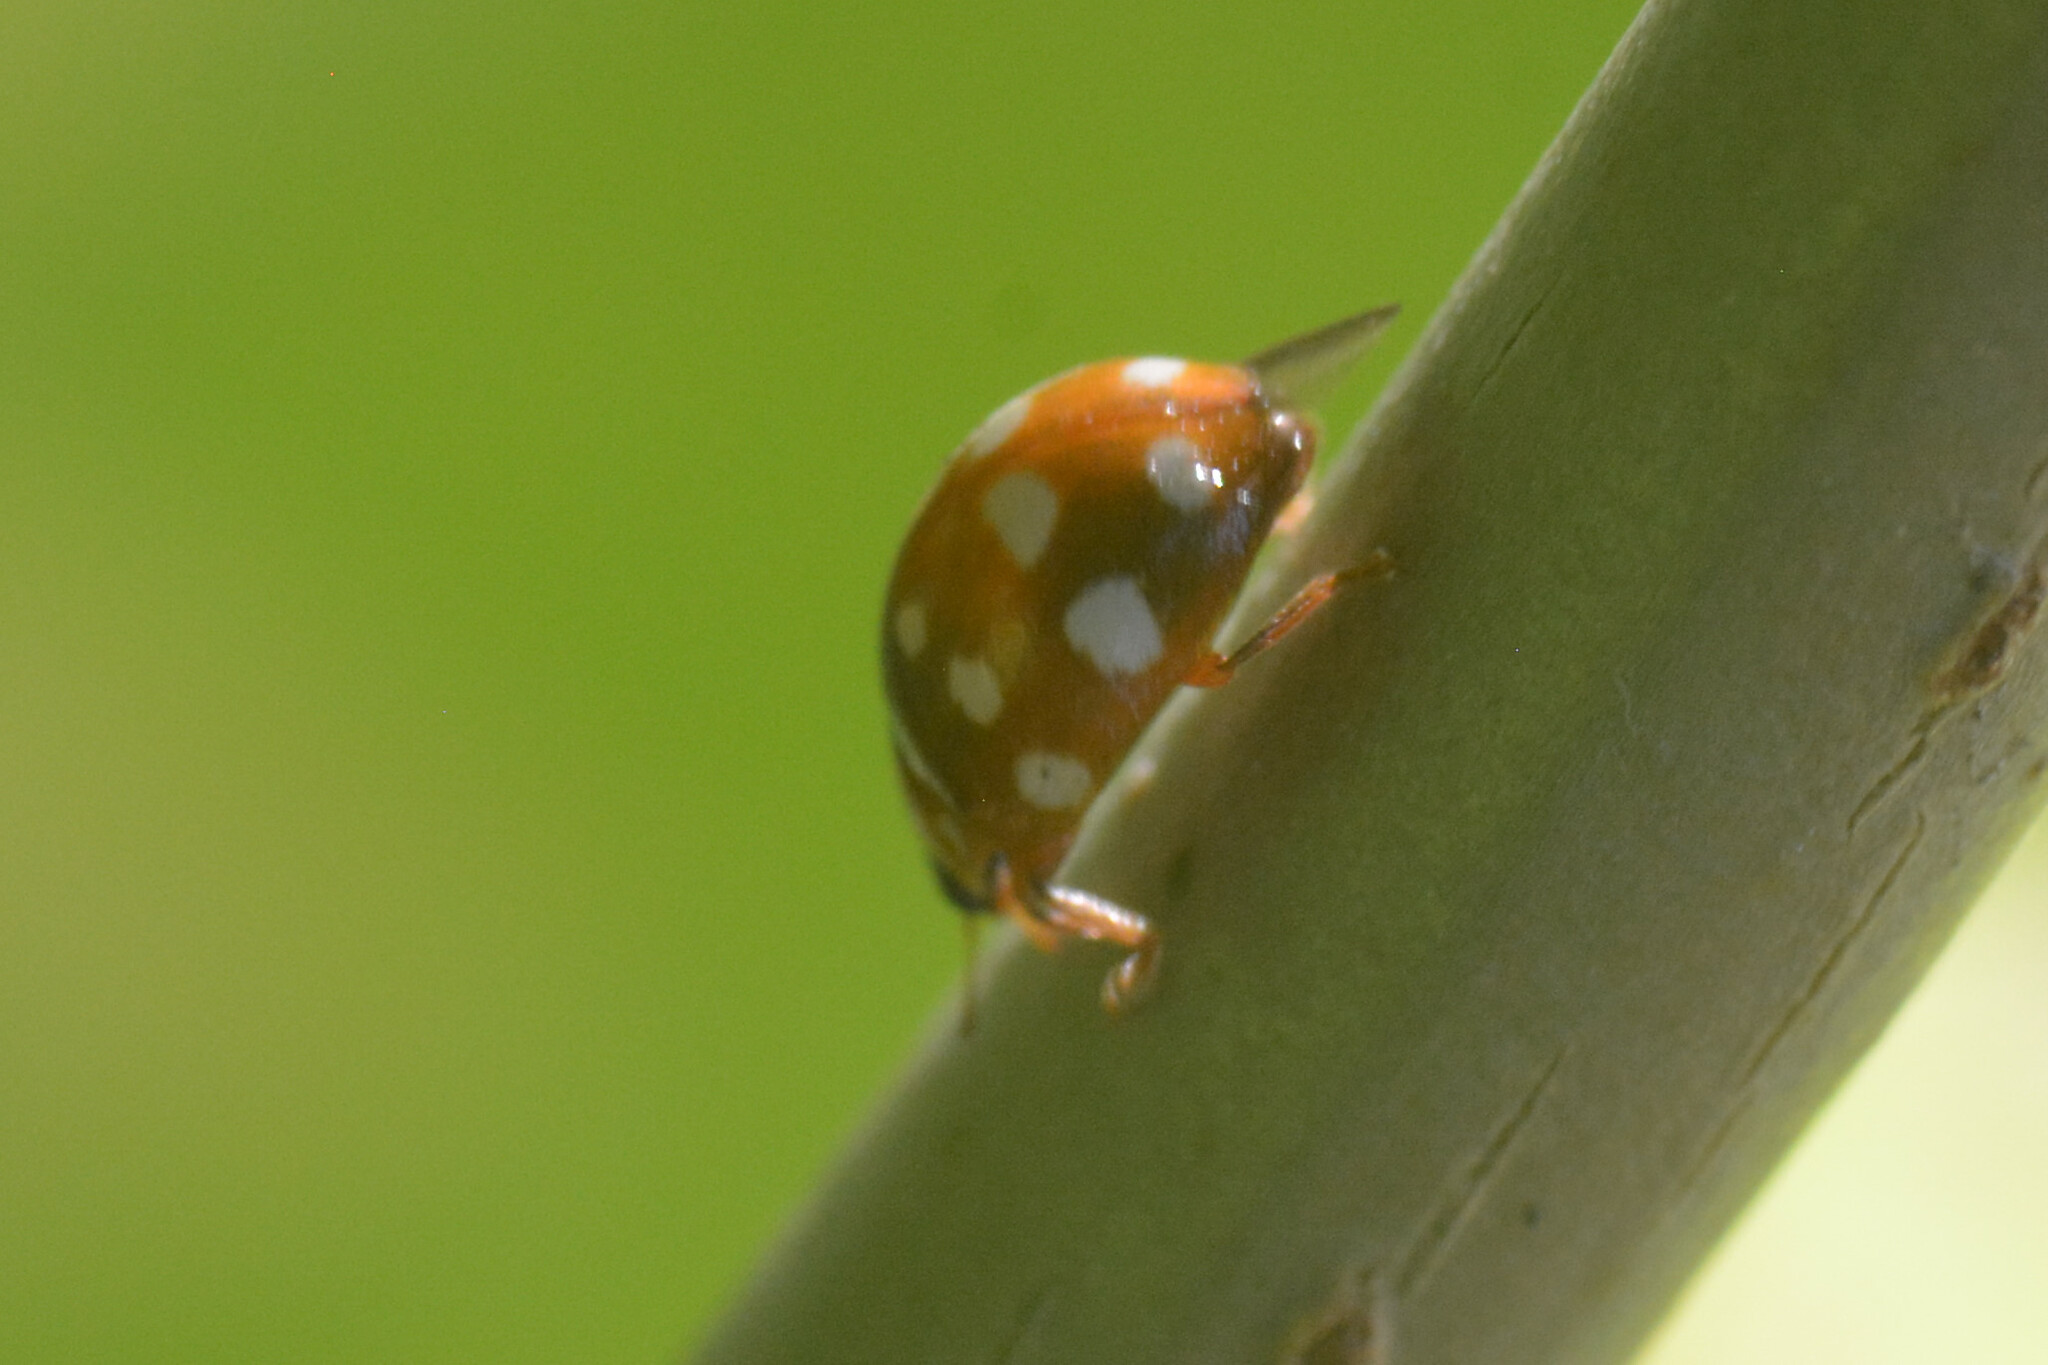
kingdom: Animalia
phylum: Arthropoda
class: Insecta
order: Coleoptera
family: Coccinellidae
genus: Calvia
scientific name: Calvia quatuordecimguttata
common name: Cream-spot ladybird
